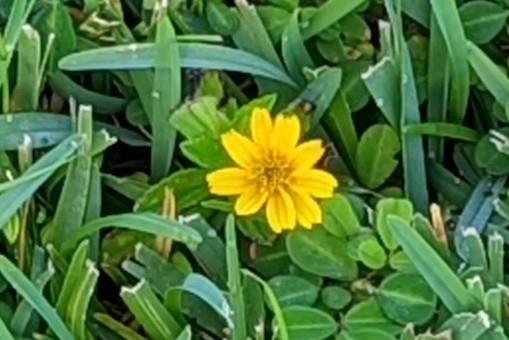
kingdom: Plantae
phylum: Tracheophyta
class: Magnoliopsida
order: Asterales
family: Asteraceae
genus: Sphagneticola
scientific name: Sphagneticola trilobata
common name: Bay biscayne creeping-oxeye
